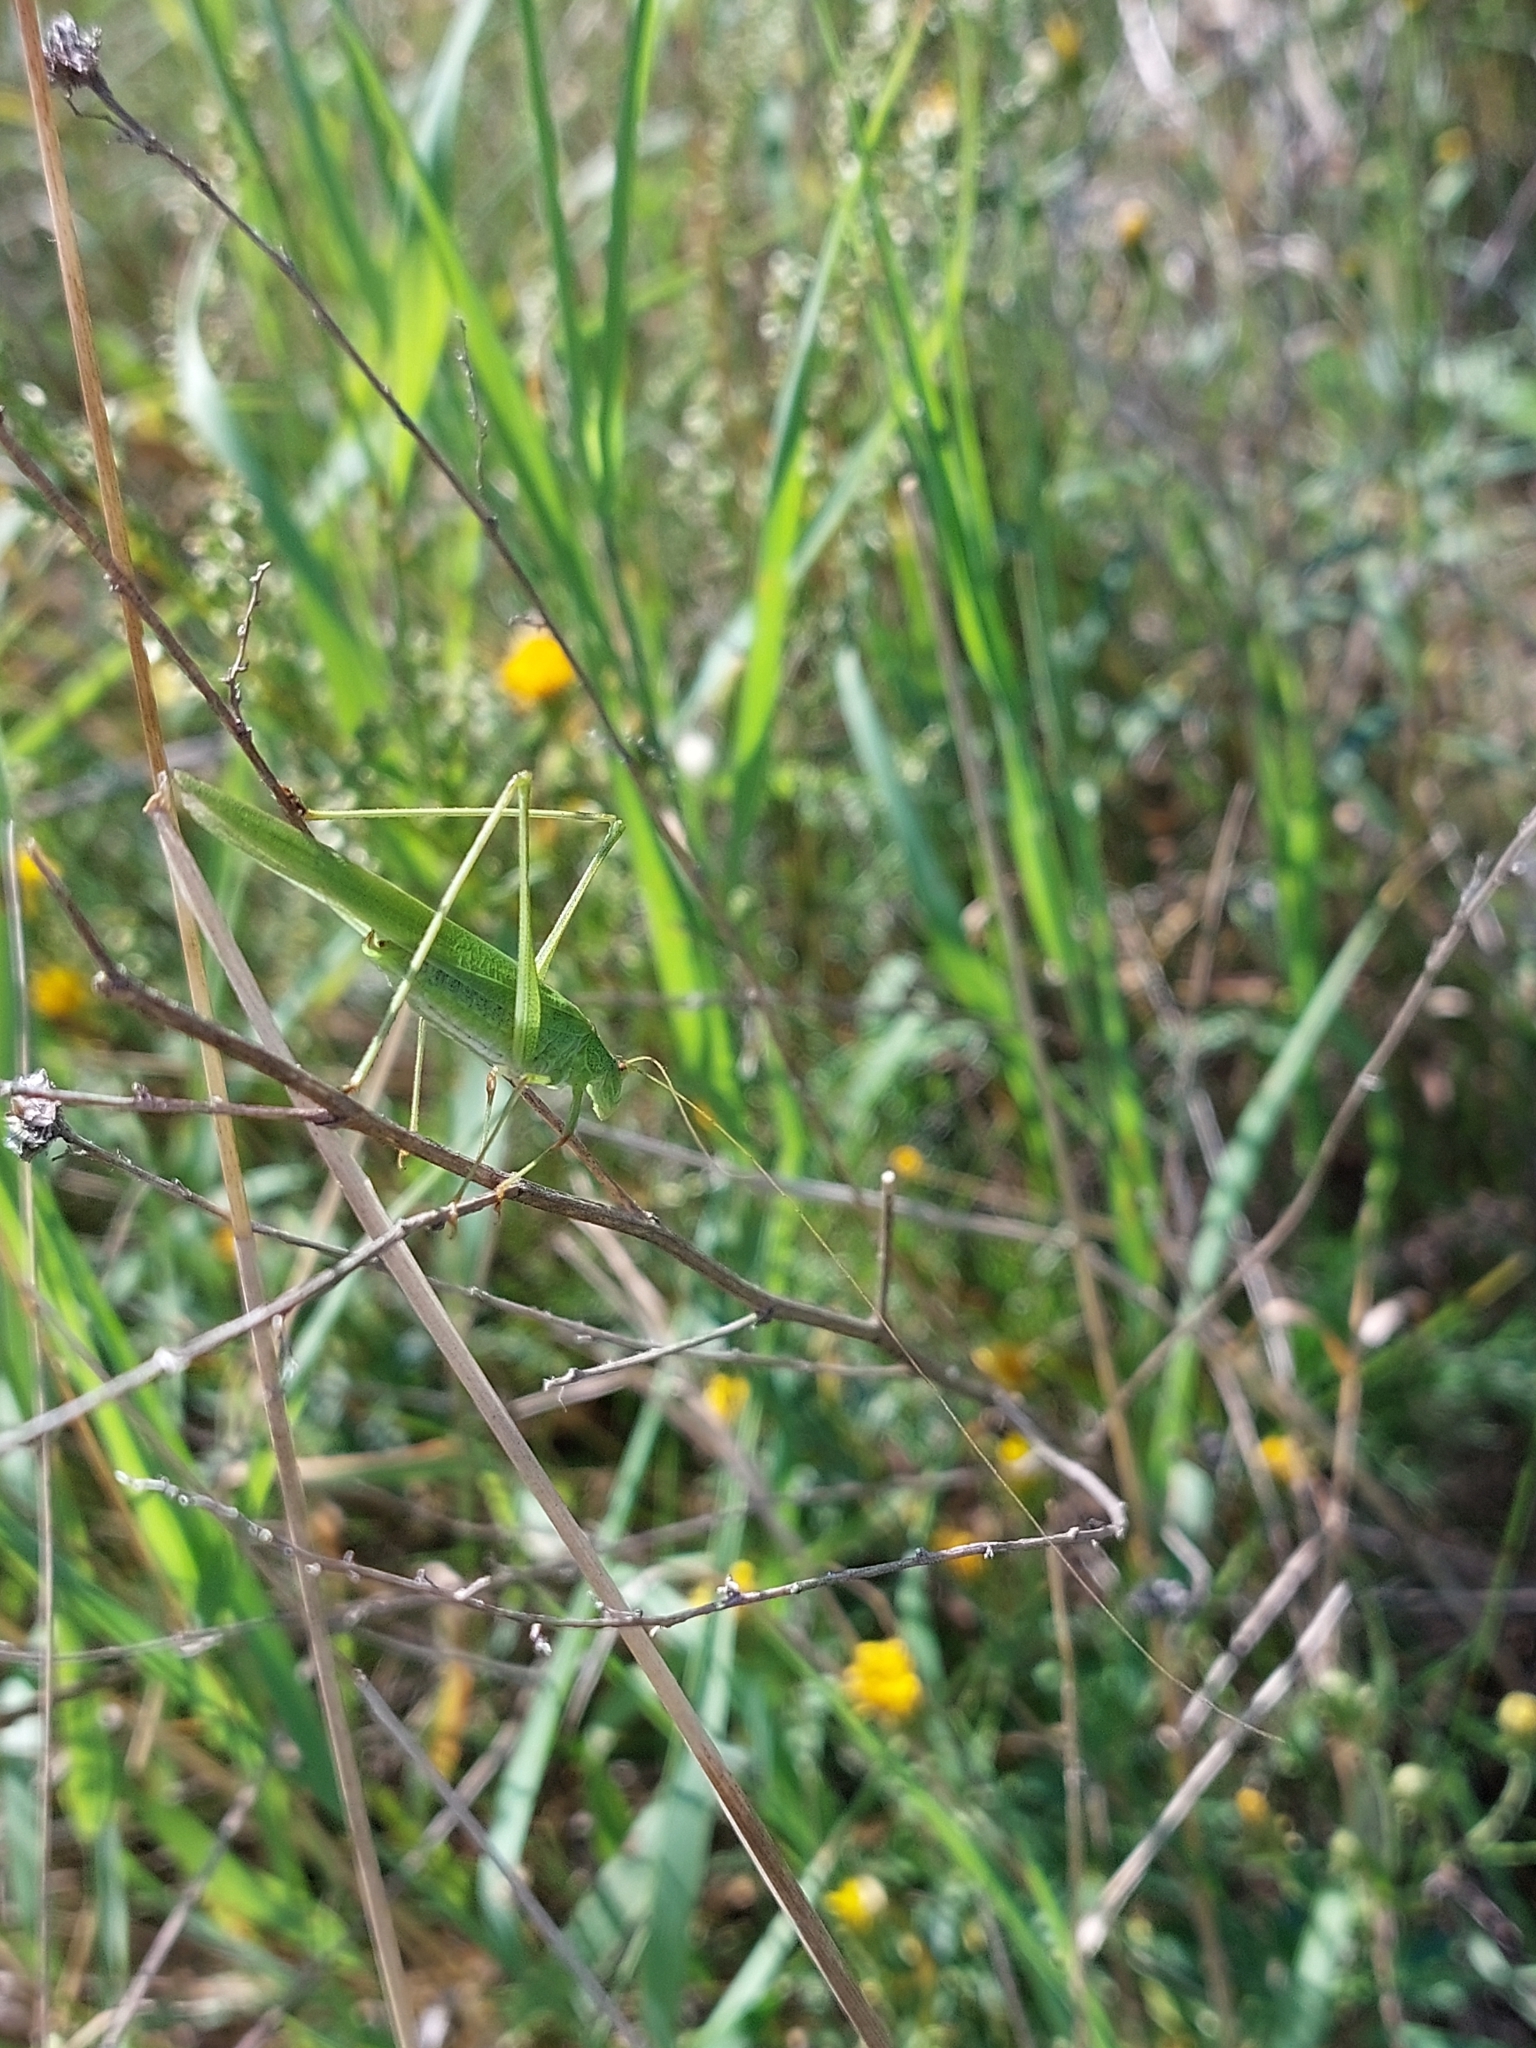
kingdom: Animalia
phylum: Arthropoda
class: Insecta
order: Orthoptera
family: Tettigoniidae
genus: Phaneroptera
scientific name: Phaneroptera falcata
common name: Sickle-bearing bush-cricket
